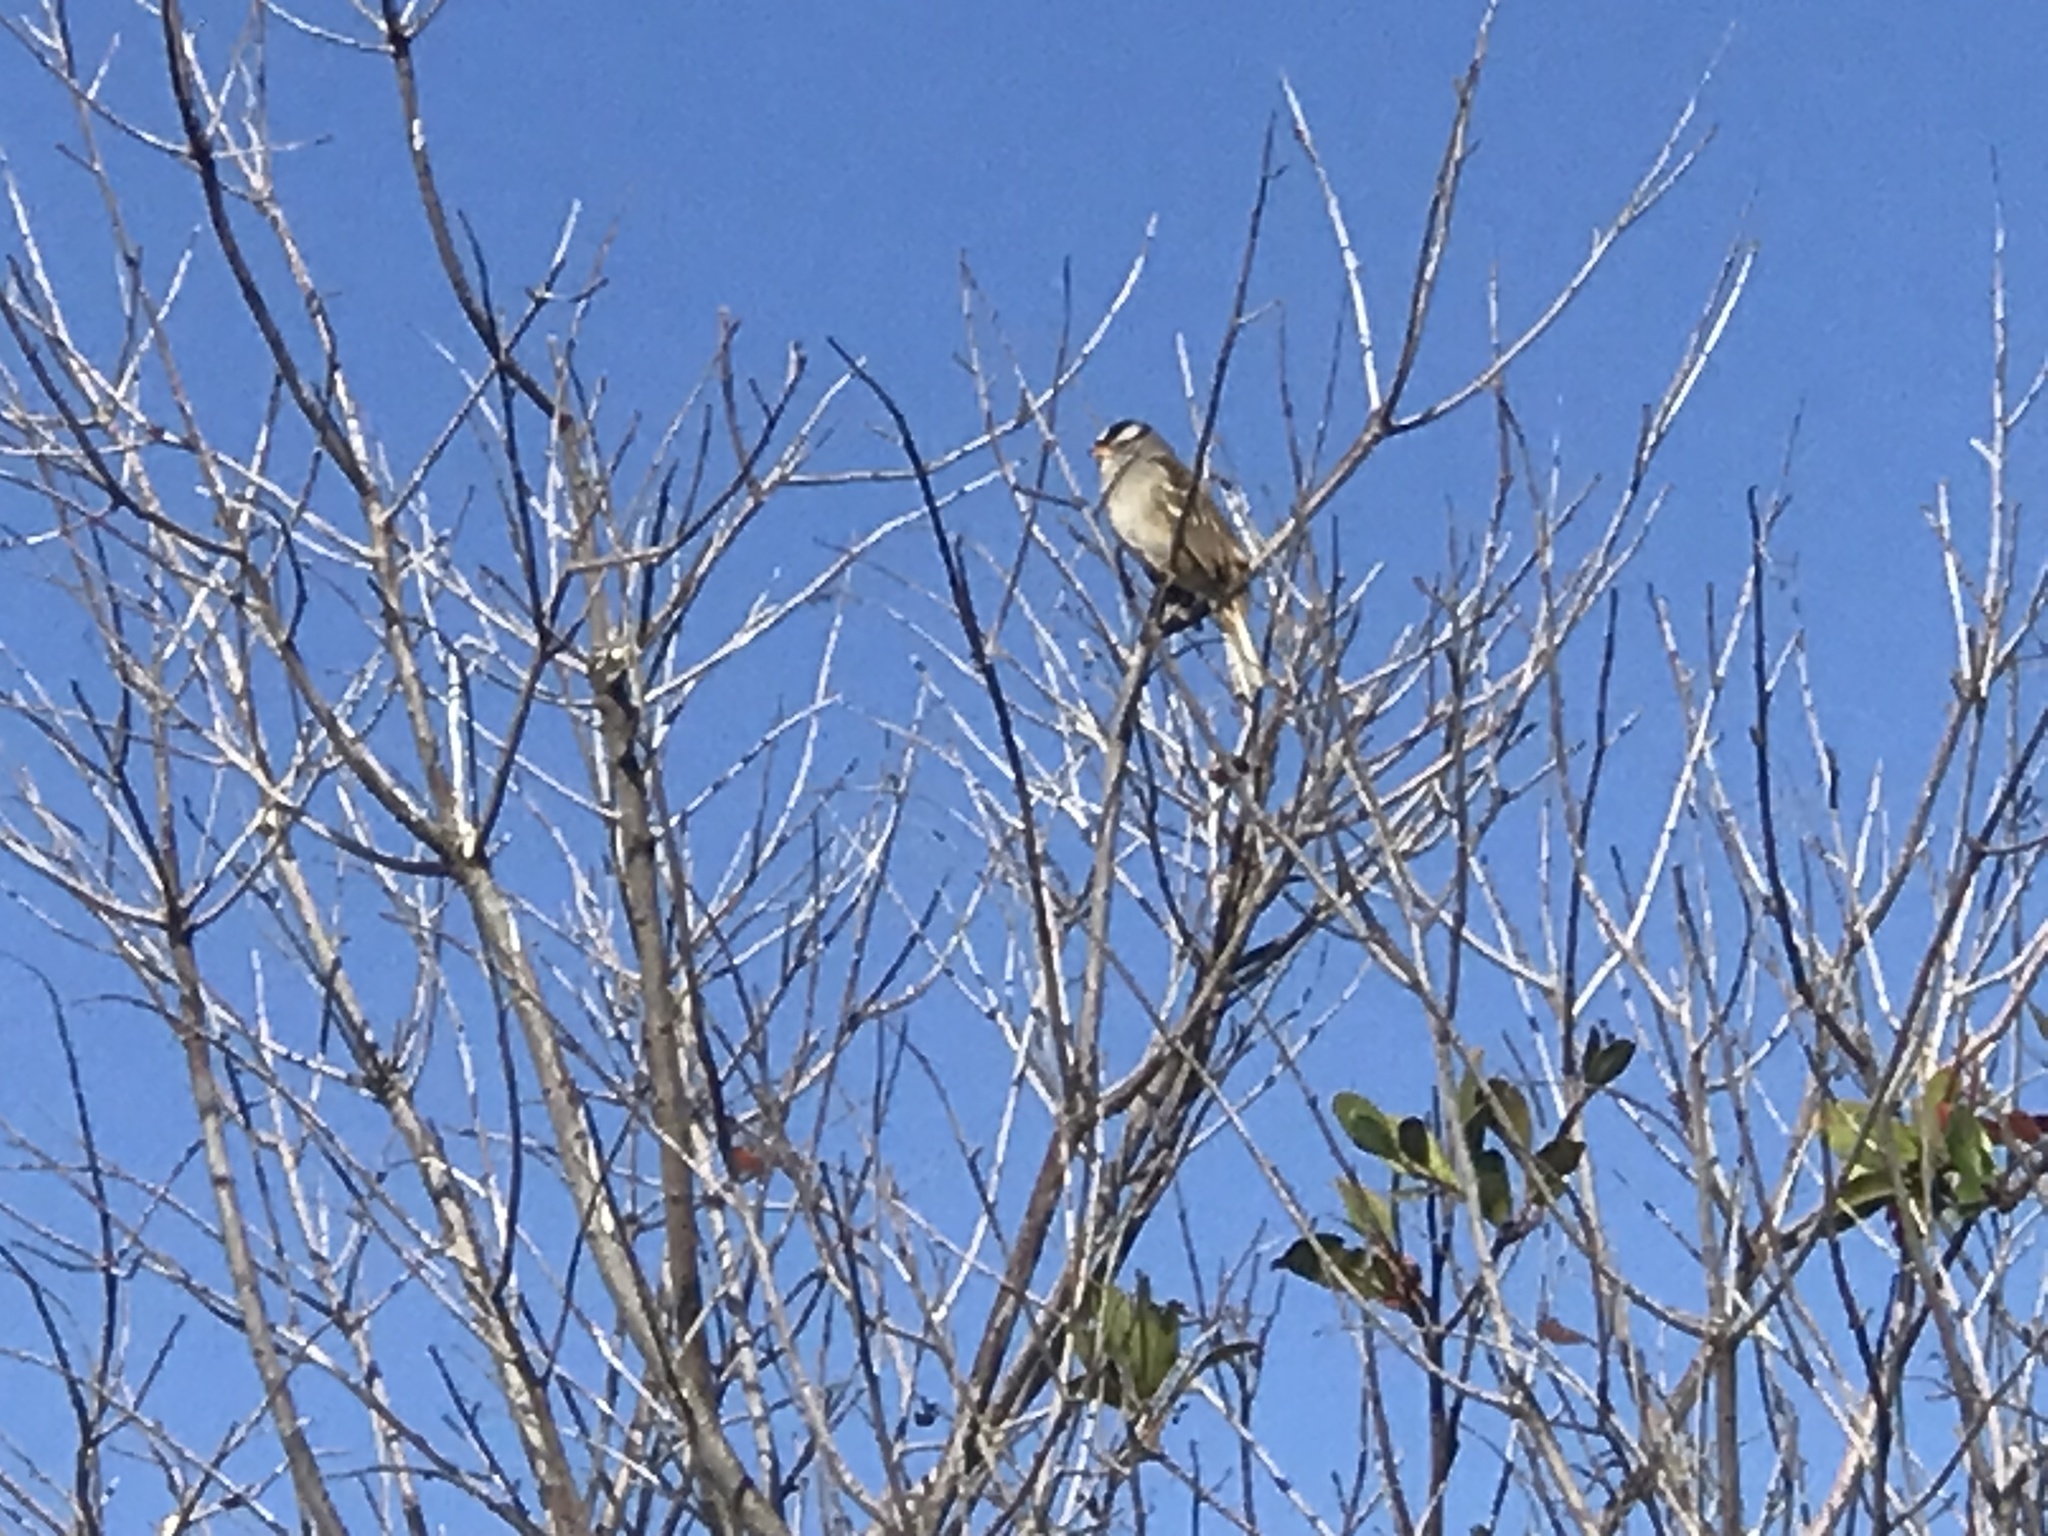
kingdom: Animalia
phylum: Chordata
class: Aves
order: Passeriformes
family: Passerellidae
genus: Zonotrichia
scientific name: Zonotrichia leucophrys
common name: White-crowned sparrow
